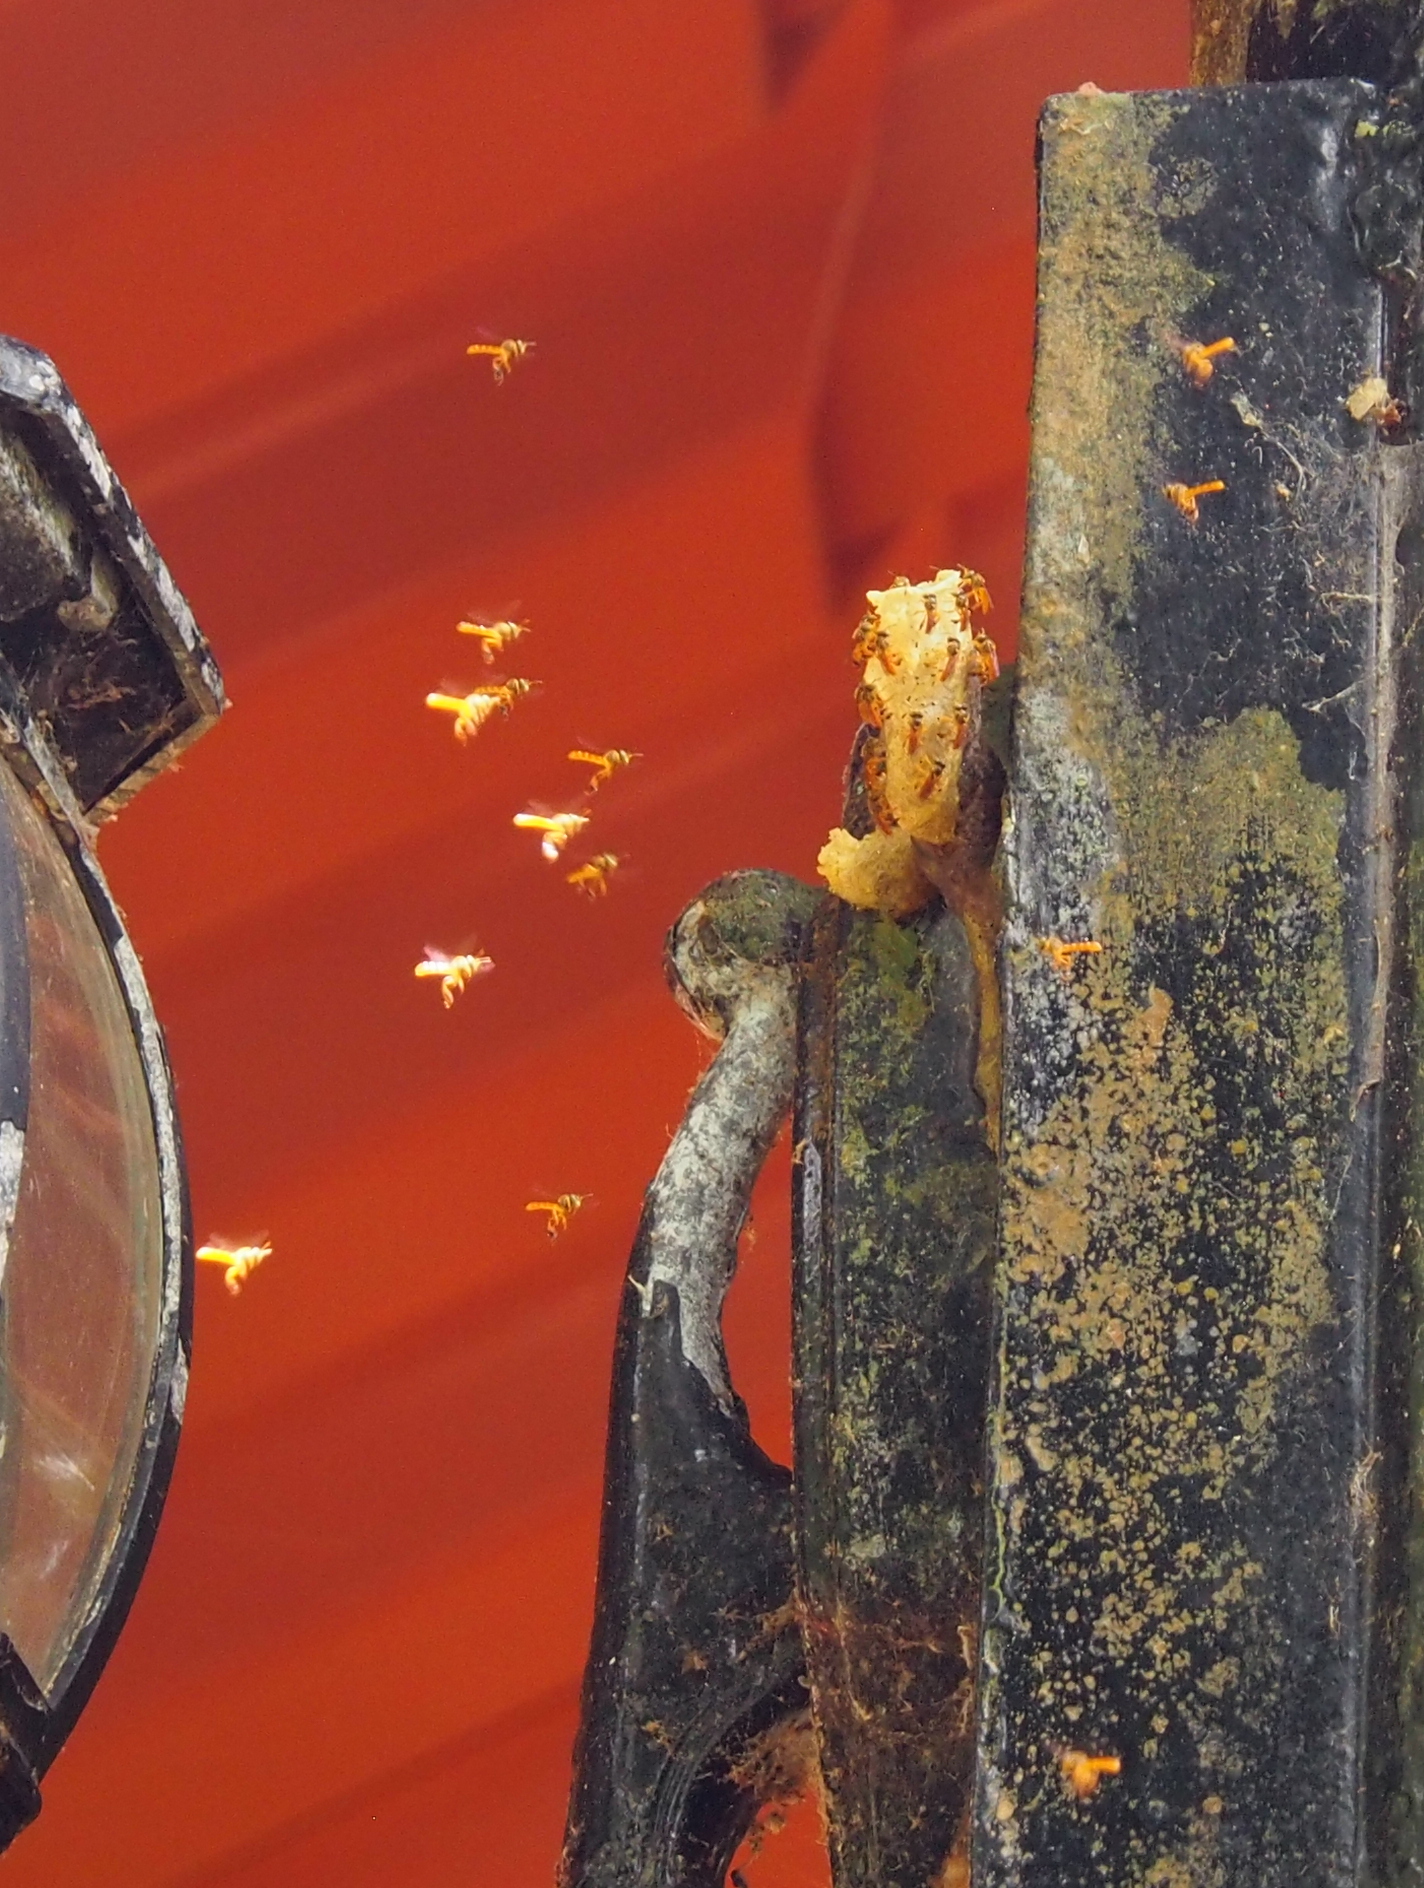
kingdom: Animalia
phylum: Arthropoda
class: Insecta
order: Hymenoptera
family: Apidae
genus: Tetragonisca
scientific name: Tetragonisca angustula
